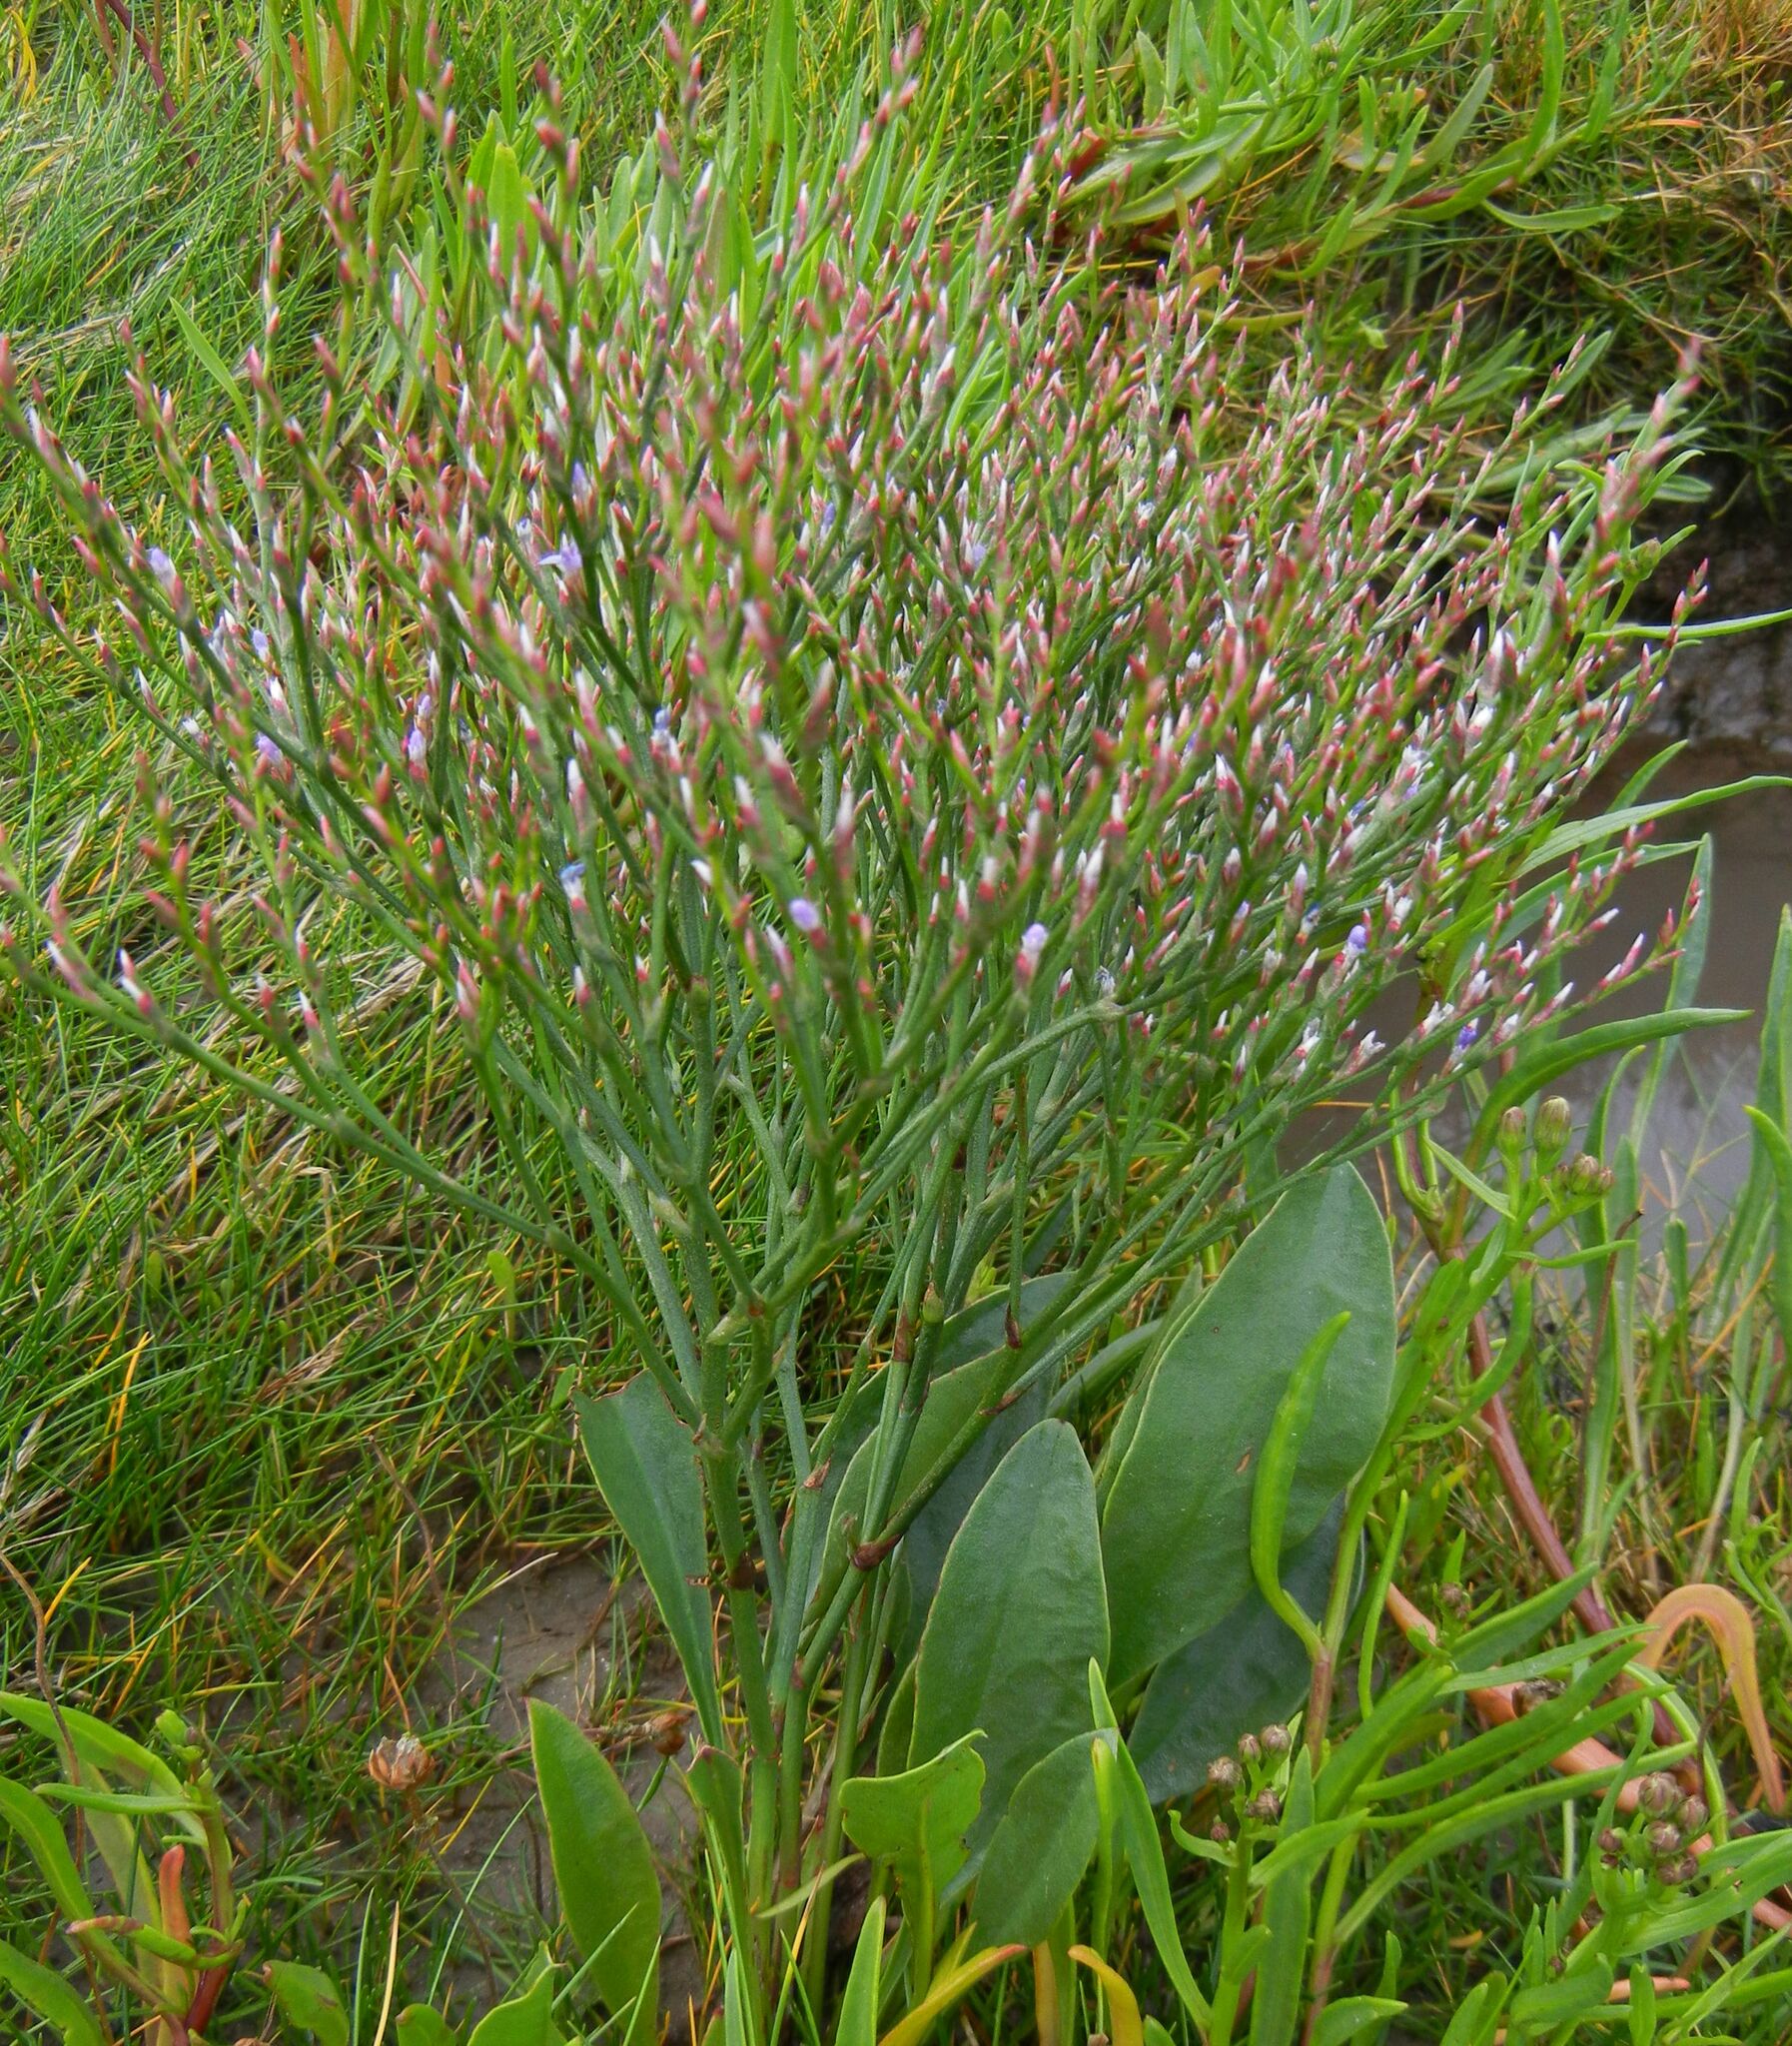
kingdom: Plantae
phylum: Tracheophyta
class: Magnoliopsida
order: Caryophyllales
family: Plumbaginaceae
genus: Limonium
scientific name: Limonium vulgare
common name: Common sea-lavender
